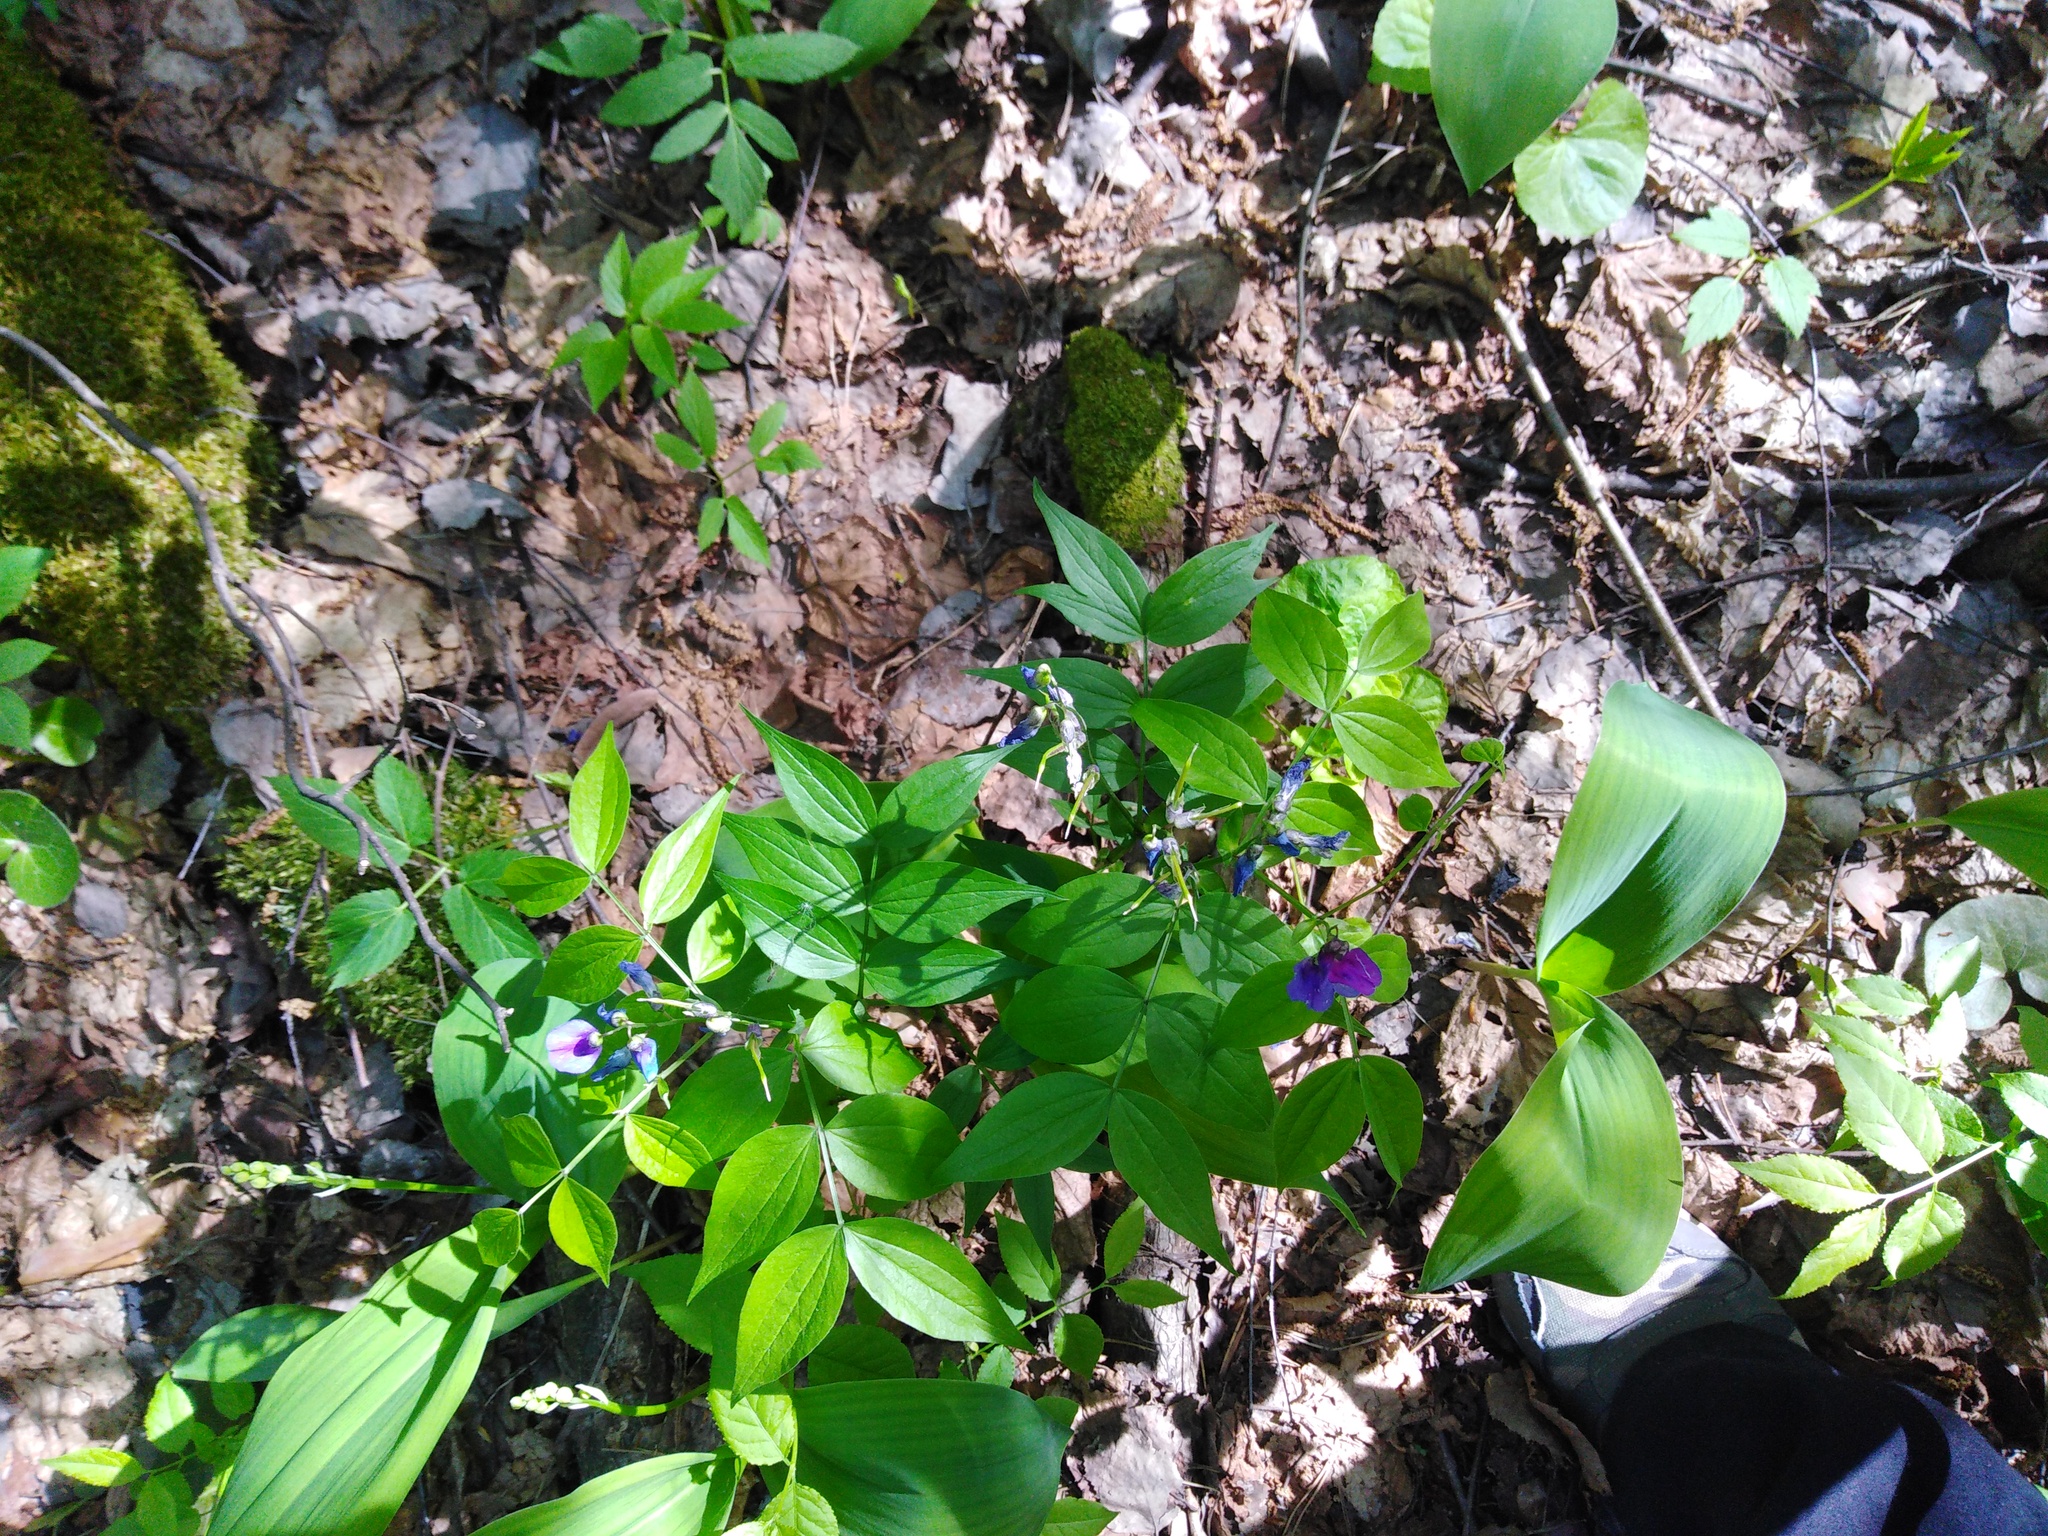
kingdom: Plantae
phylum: Tracheophyta
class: Magnoliopsida
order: Fabales
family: Fabaceae
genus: Lathyrus
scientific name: Lathyrus vernus
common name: Spring pea
